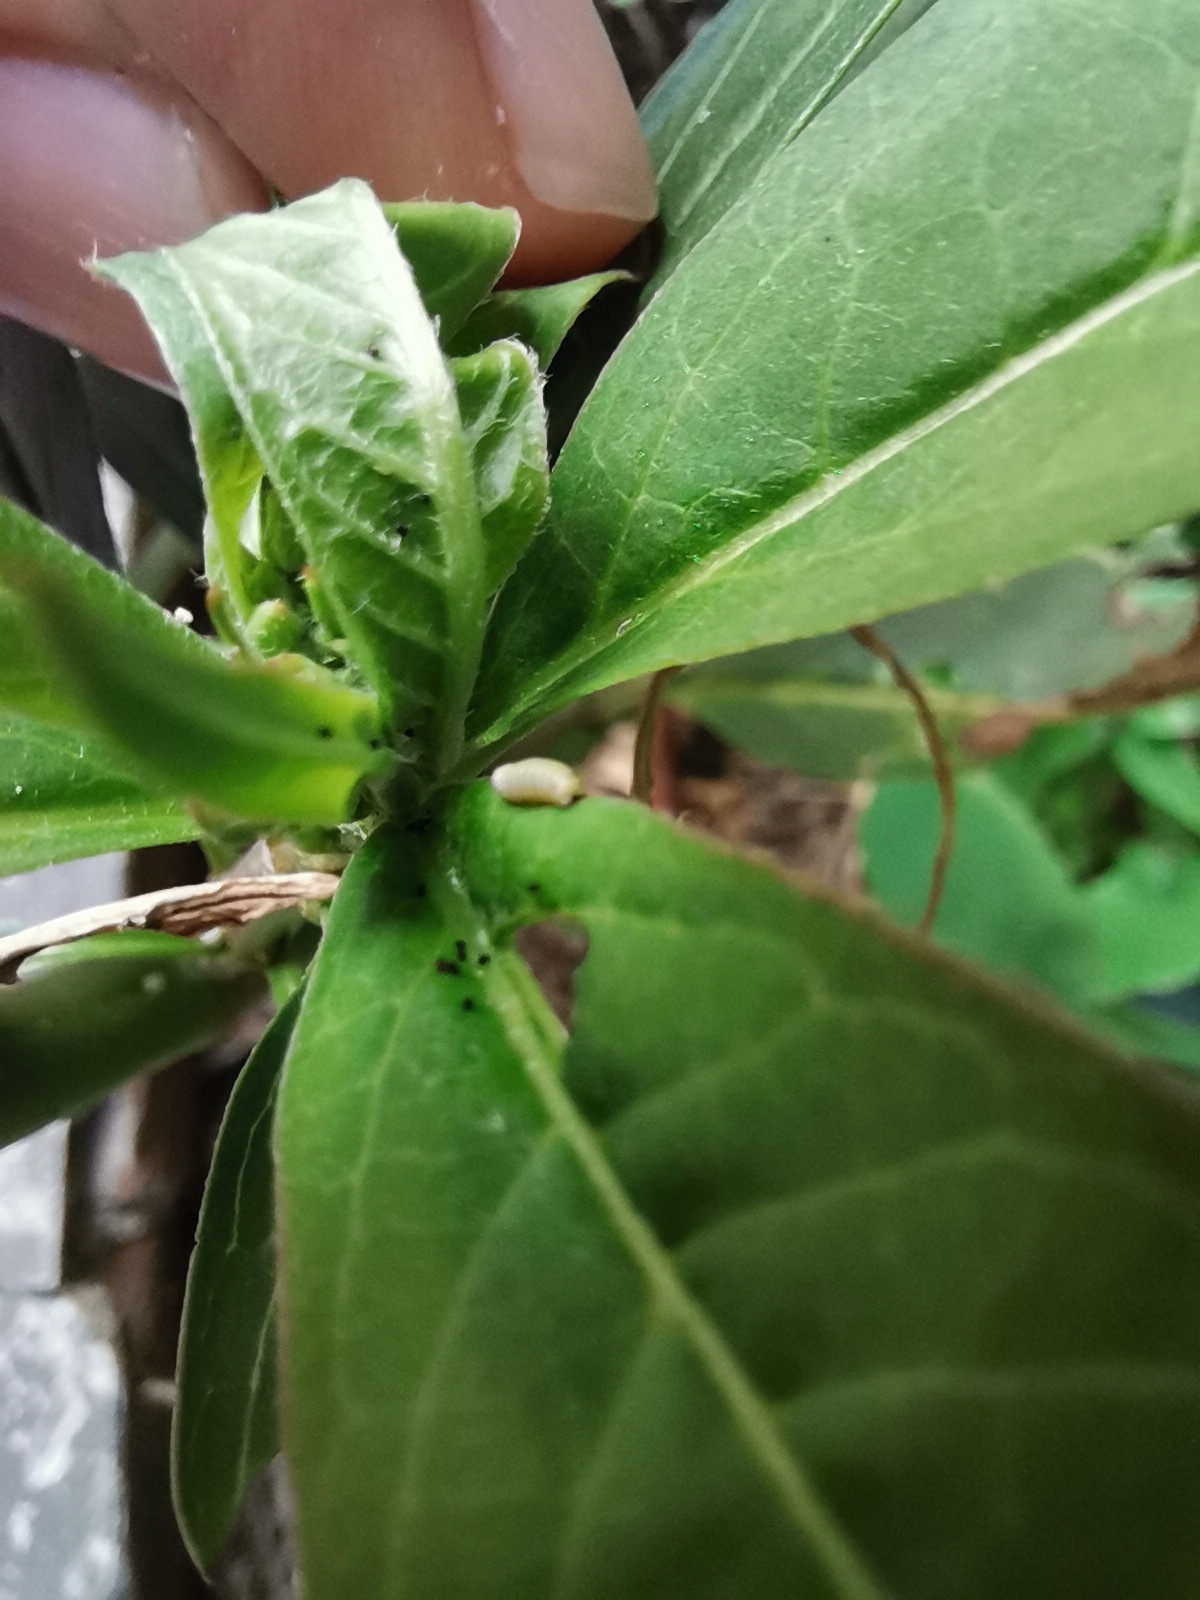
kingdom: Animalia
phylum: Arthropoda
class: Insecta
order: Lepidoptera
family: Nymphalidae
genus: Danaus
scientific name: Danaus plexippus
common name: Monarch
